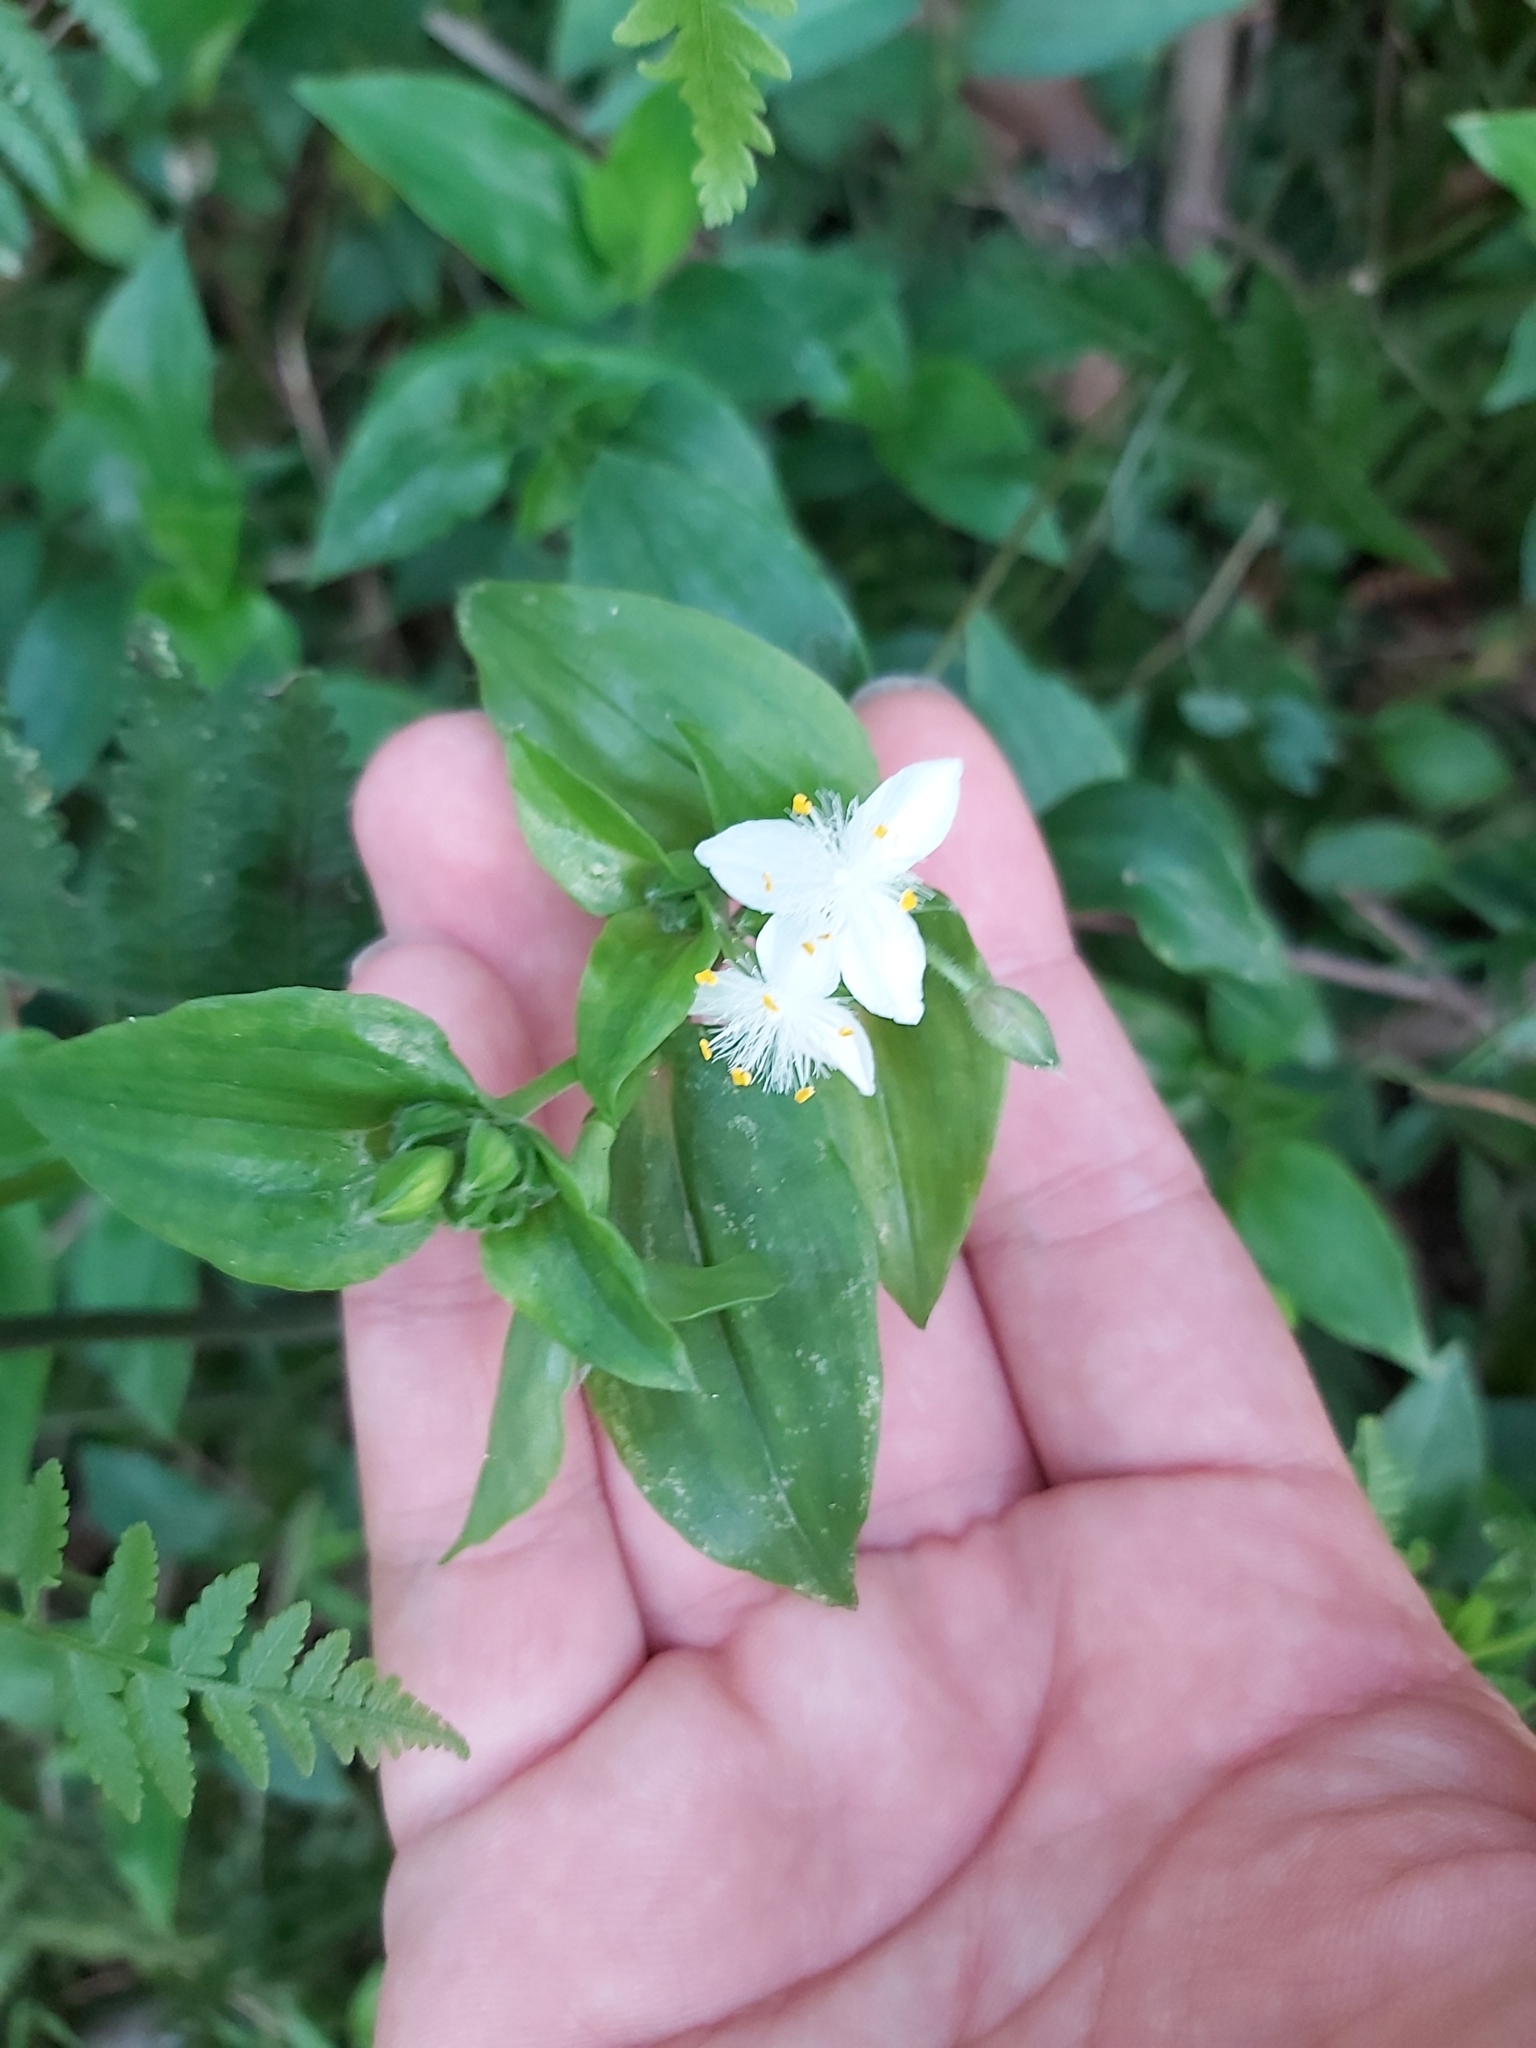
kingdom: Plantae
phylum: Tracheophyta
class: Liliopsida
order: Commelinales
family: Commelinaceae
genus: Tradescantia
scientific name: Tradescantia fluminensis
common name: Wandering-jew
